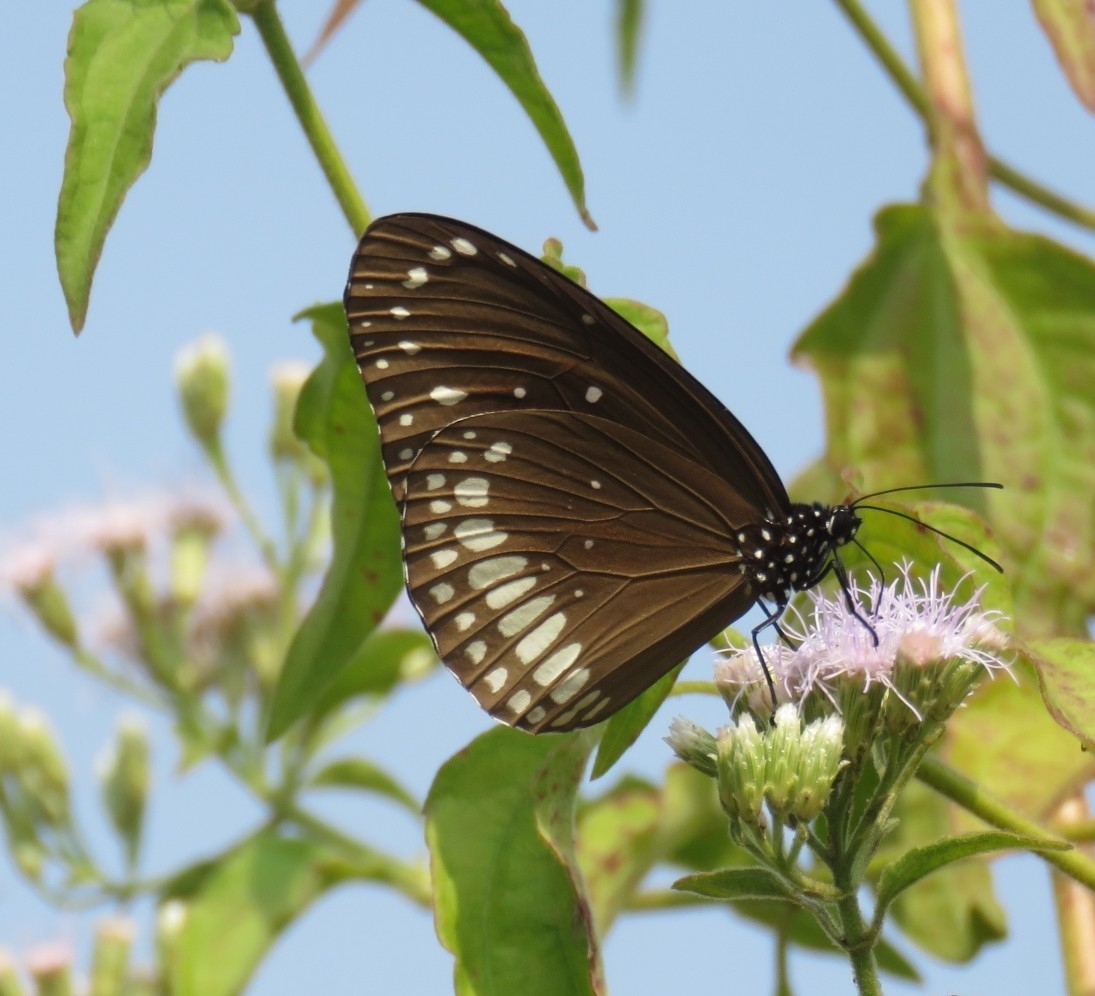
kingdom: Animalia
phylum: Arthropoda
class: Insecta
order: Lepidoptera
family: Nymphalidae
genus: Euploea
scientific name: Euploea core
